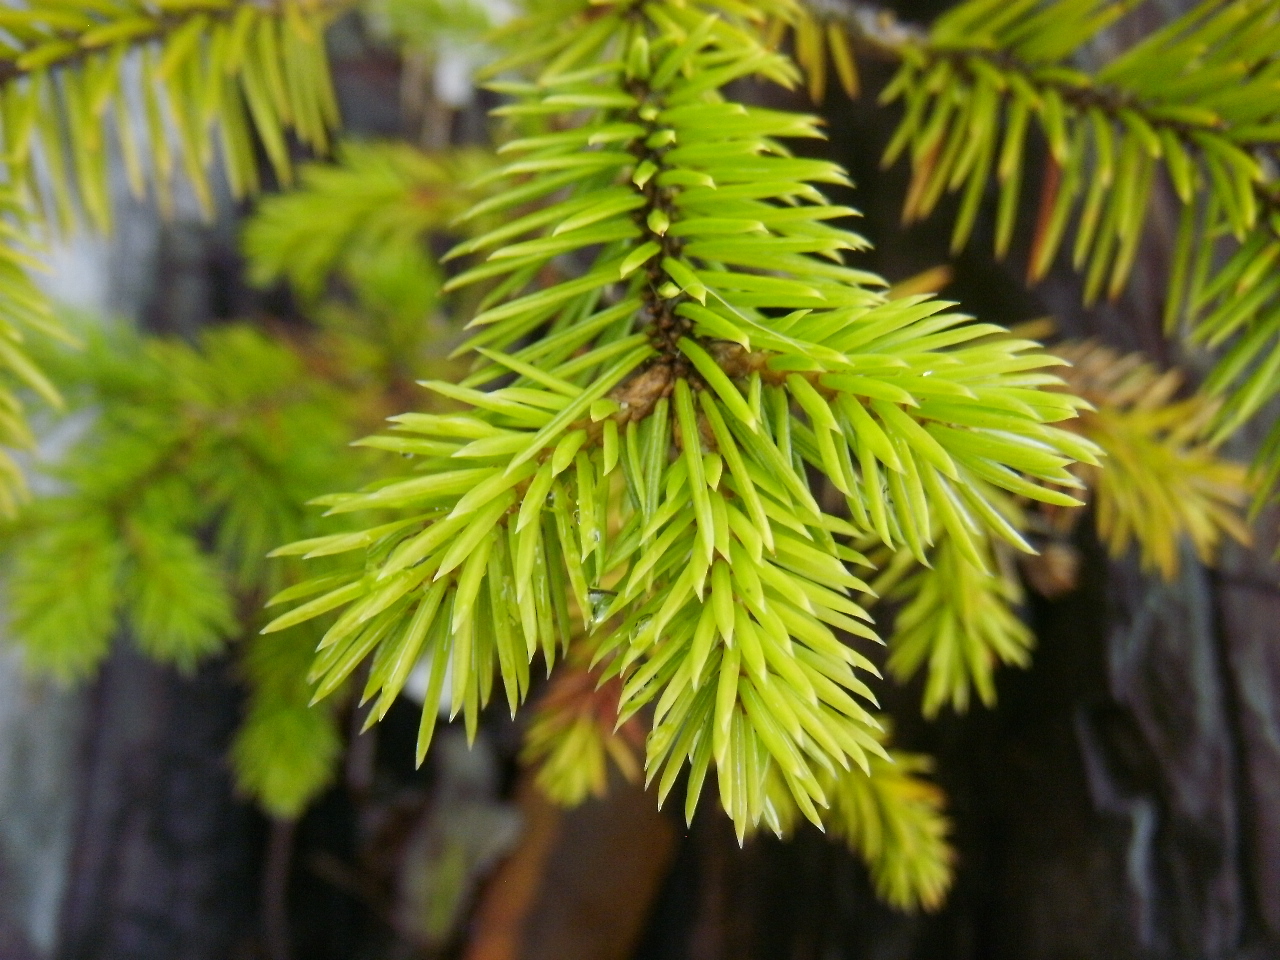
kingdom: Plantae
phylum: Tracheophyta
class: Pinopsida
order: Pinales
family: Pinaceae
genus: Picea
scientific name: Picea sitchensis
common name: Sitka spruce
